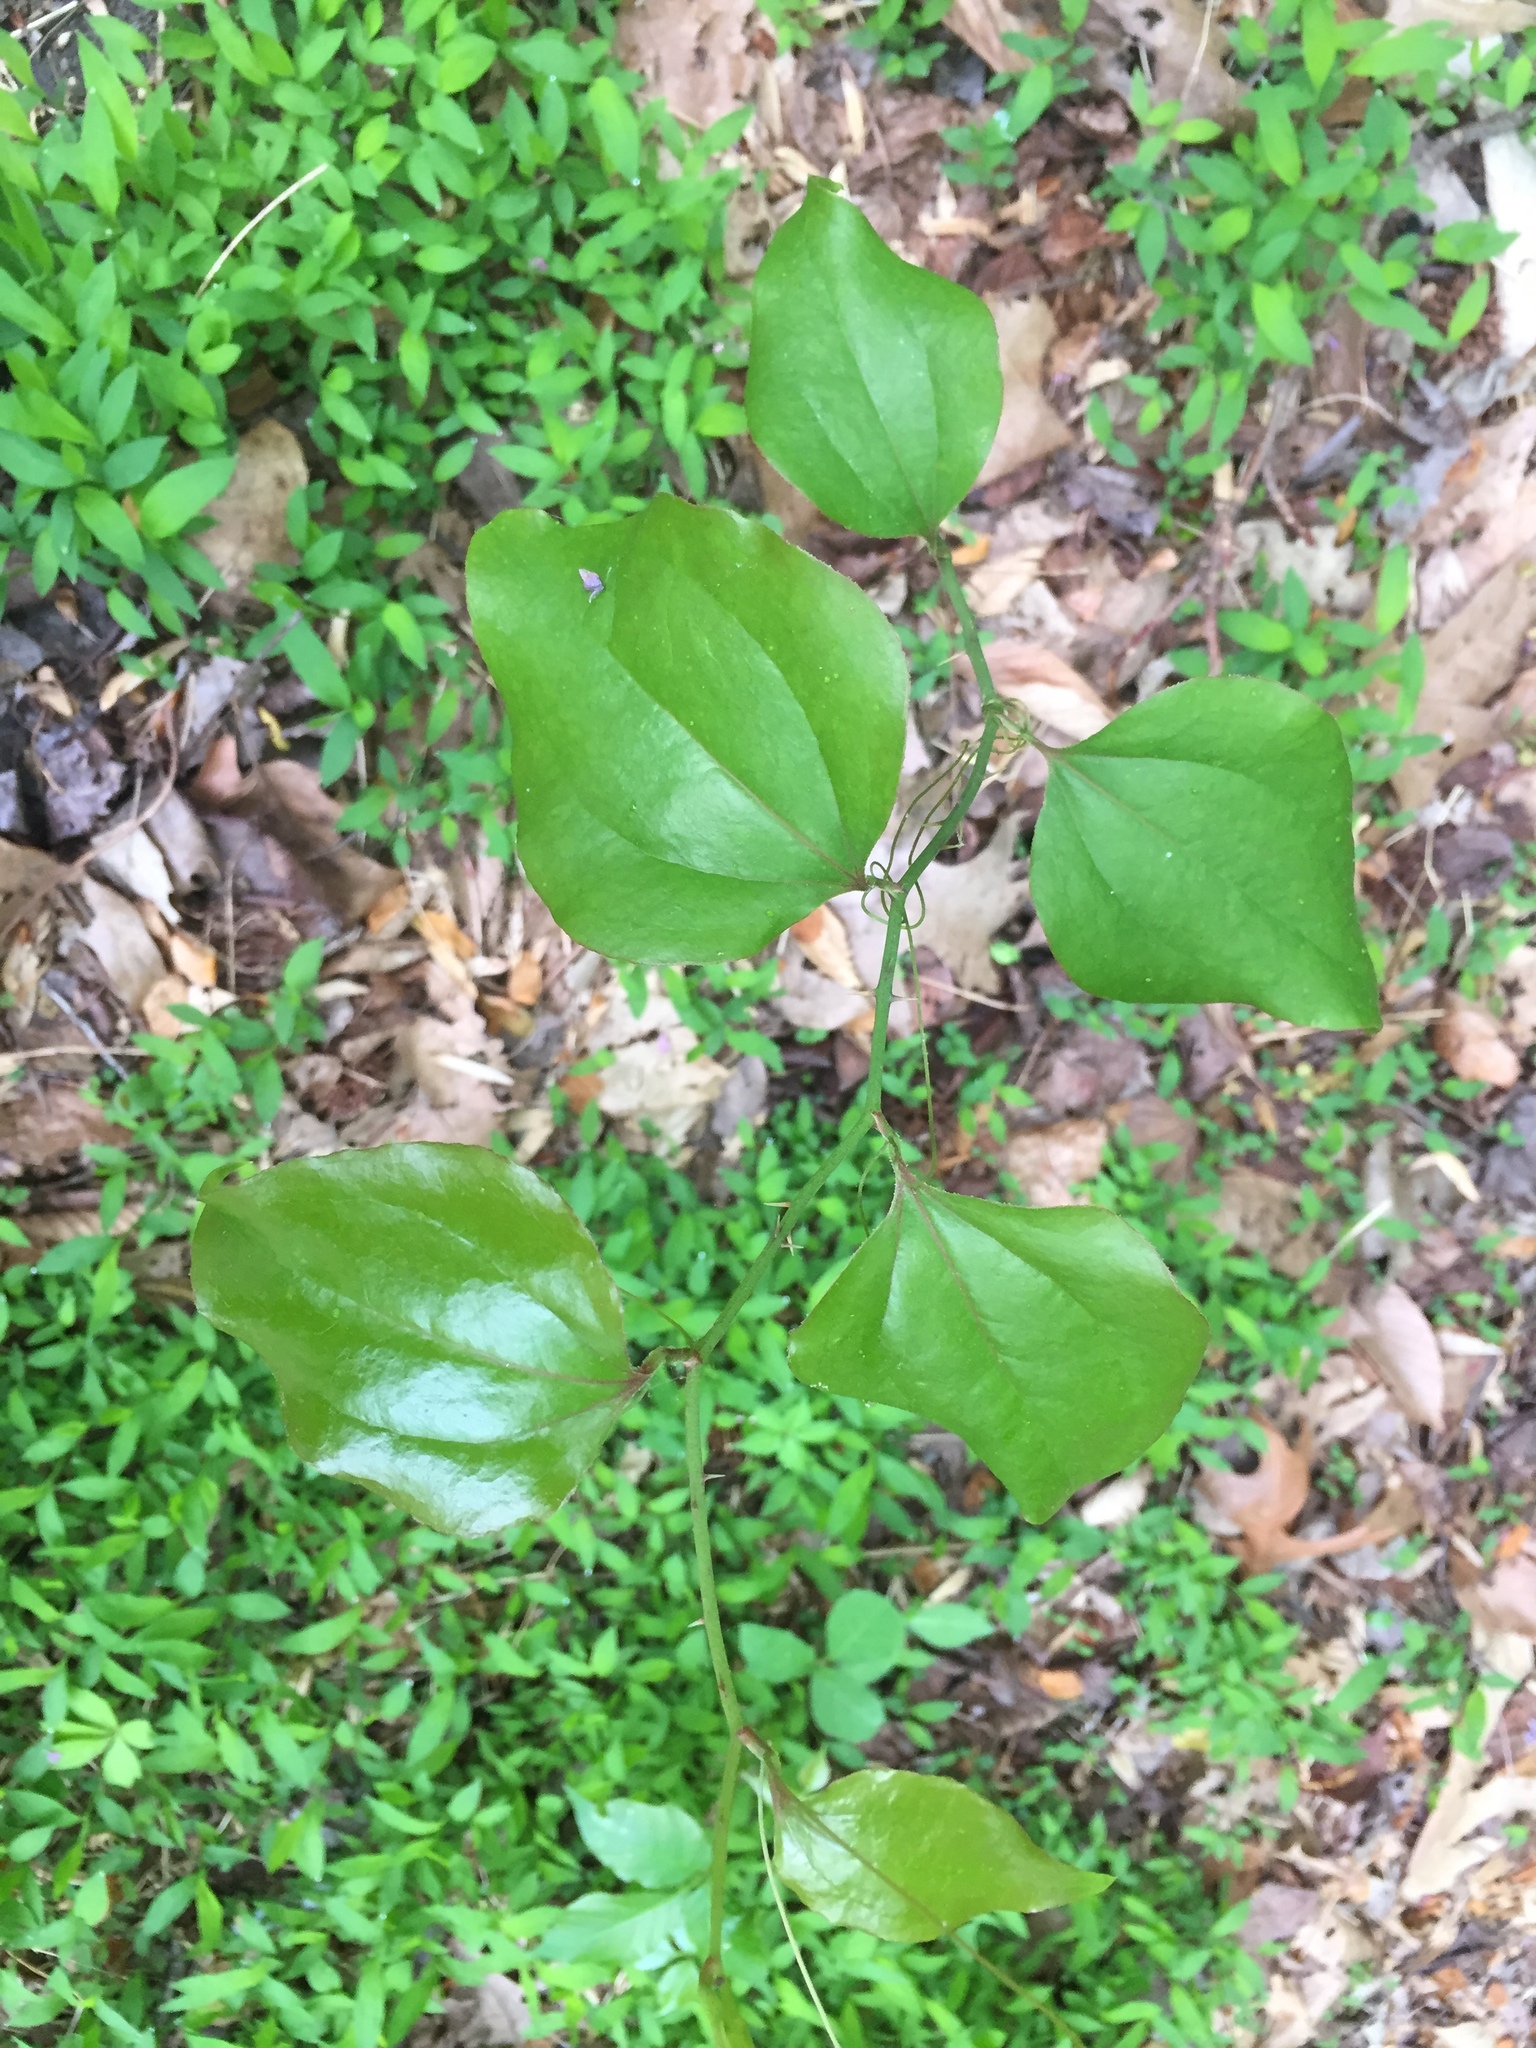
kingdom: Plantae
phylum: Tracheophyta
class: Liliopsida
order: Liliales
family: Smilacaceae
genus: Smilax
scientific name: Smilax rotundifolia
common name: Bullbriar
